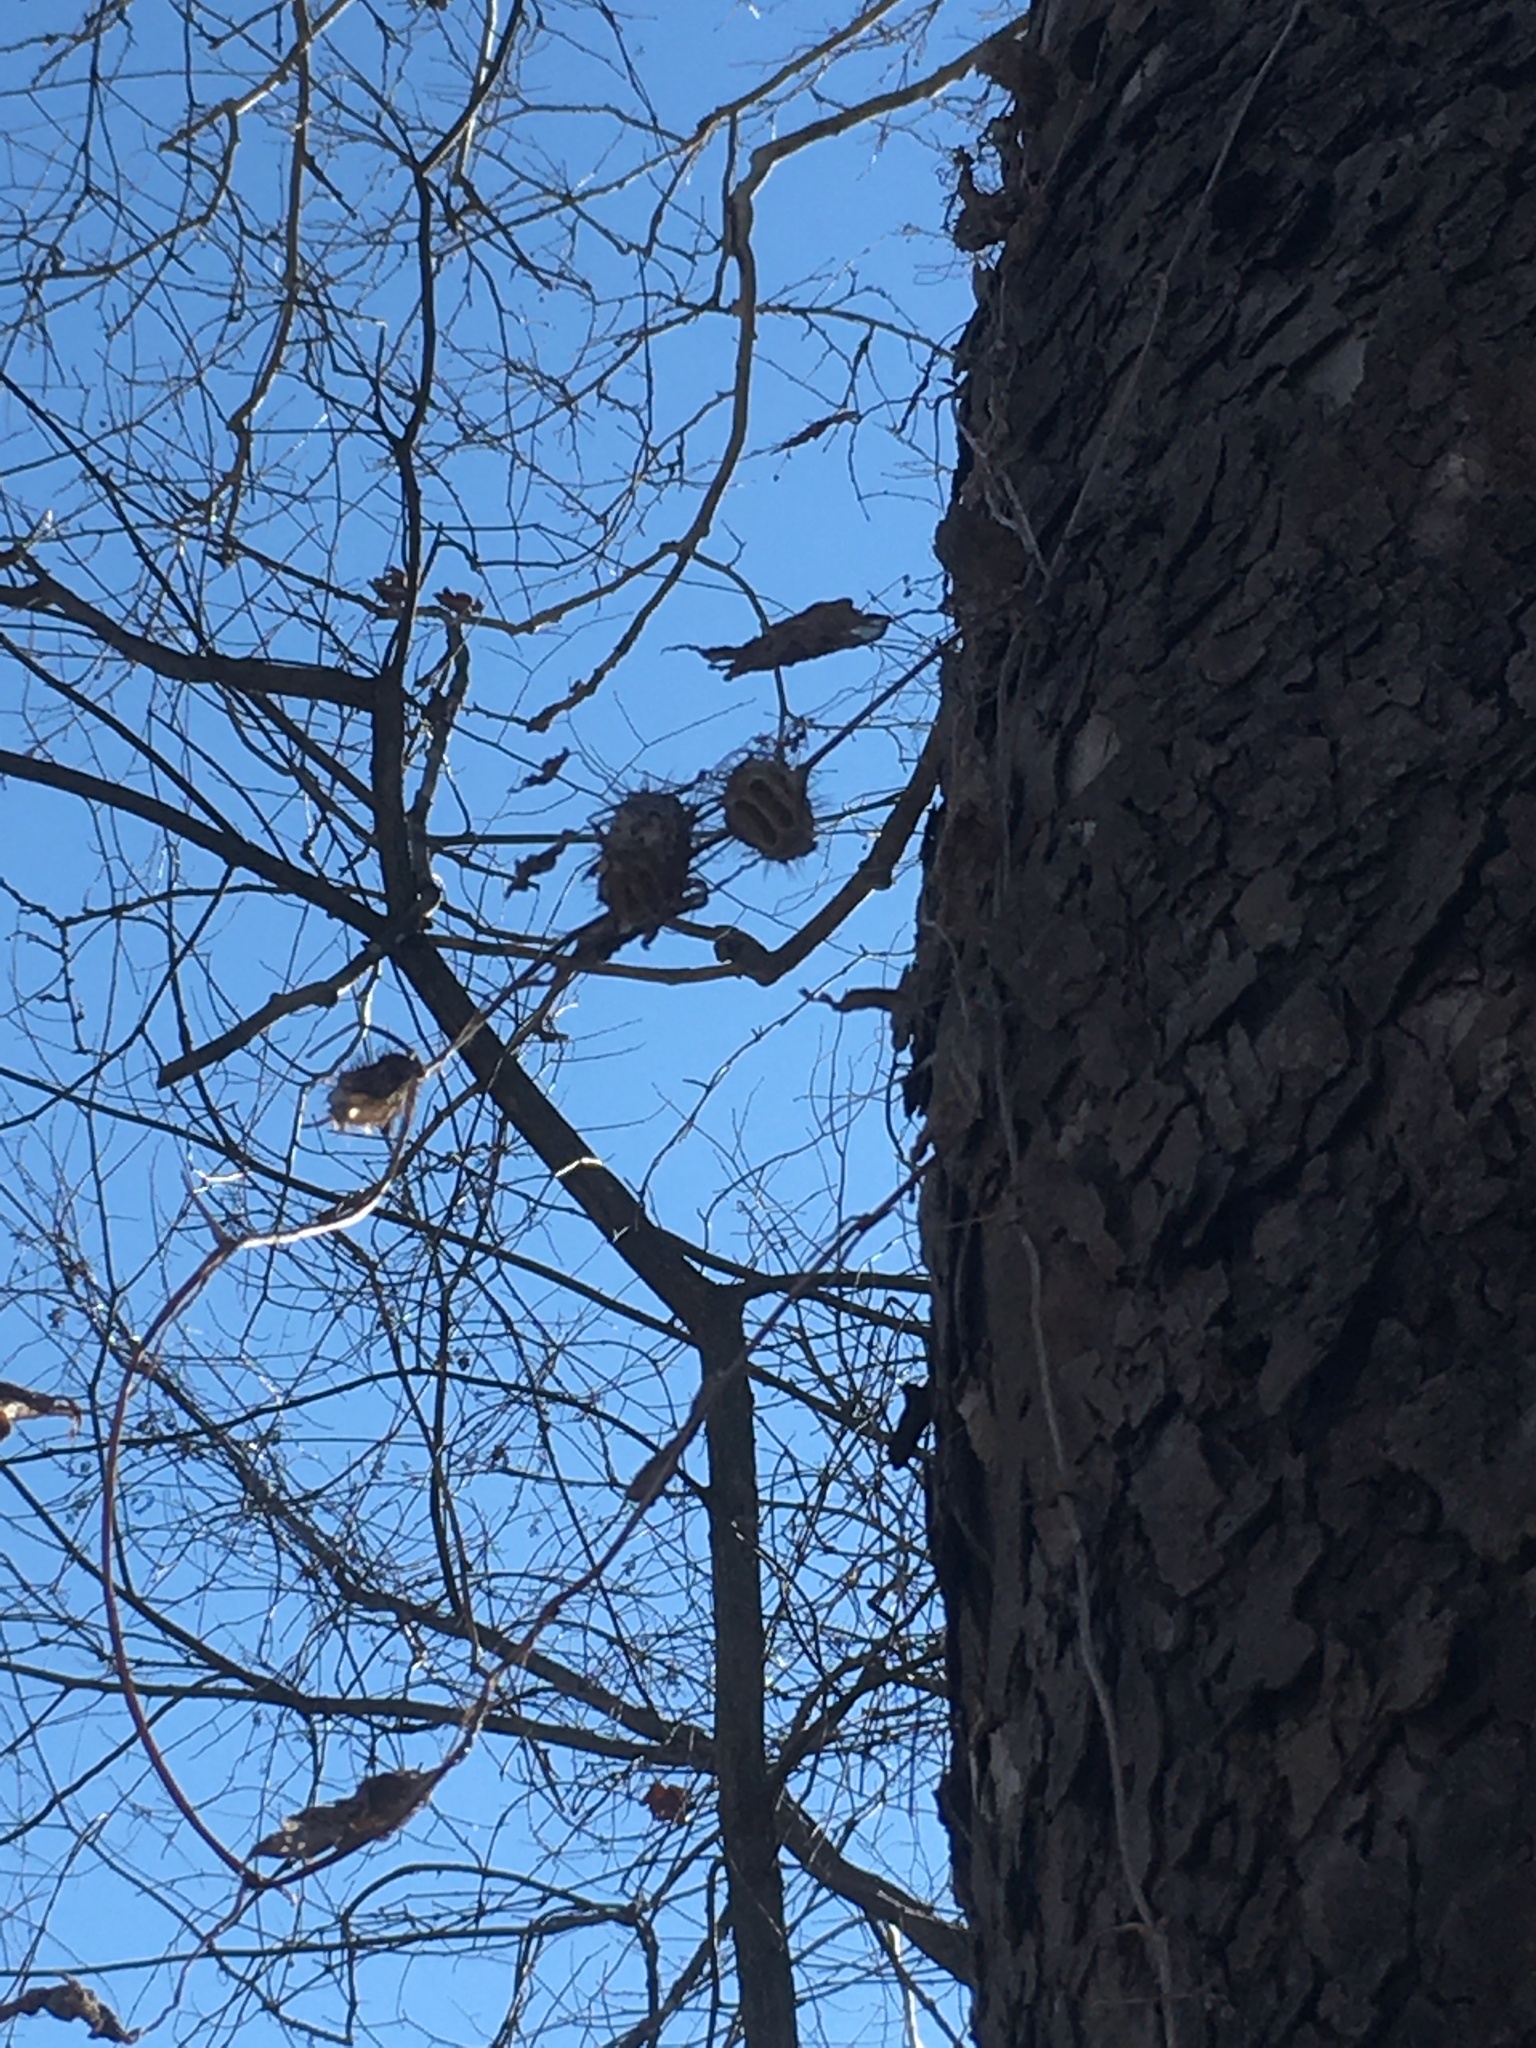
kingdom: Plantae
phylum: Tracheophyta
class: Magnoliopsida
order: Cucurbitales
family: Cucurbitaceae
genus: Echinocystis
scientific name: Echinocystis lobata
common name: Wild cucumber
